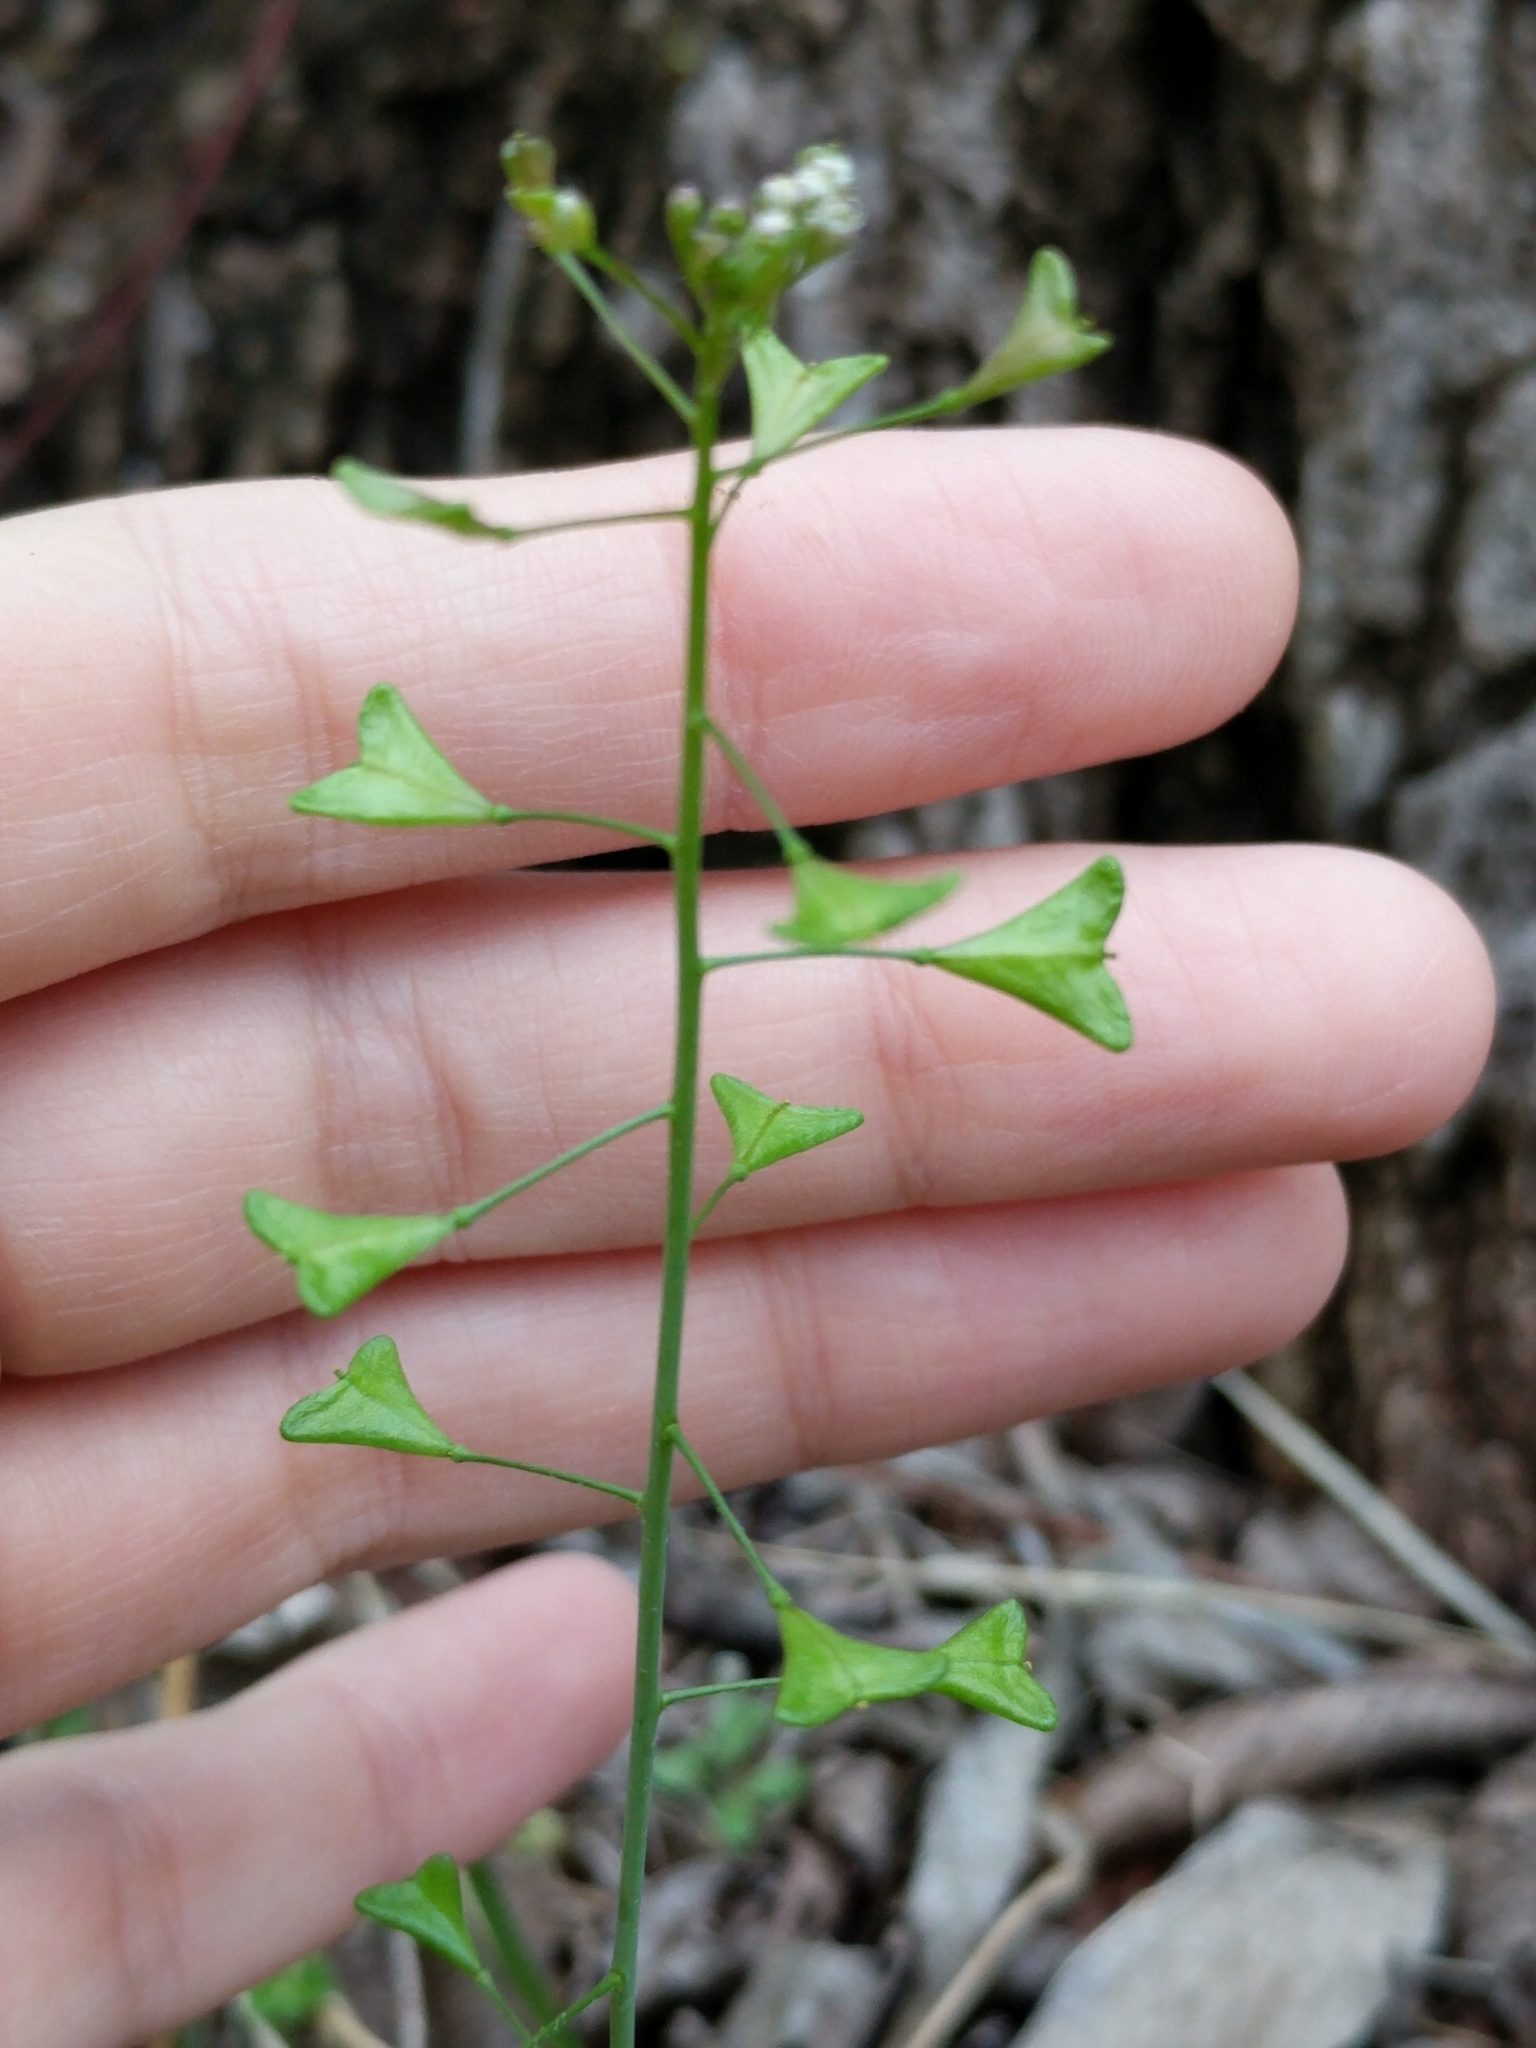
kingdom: Plantae
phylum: Tracheophyta
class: Magnoliopsida
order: Brassicales
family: Brassicaceae
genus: Capsella
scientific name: Capsella bursa-pastoris
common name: Shepherd's purse
